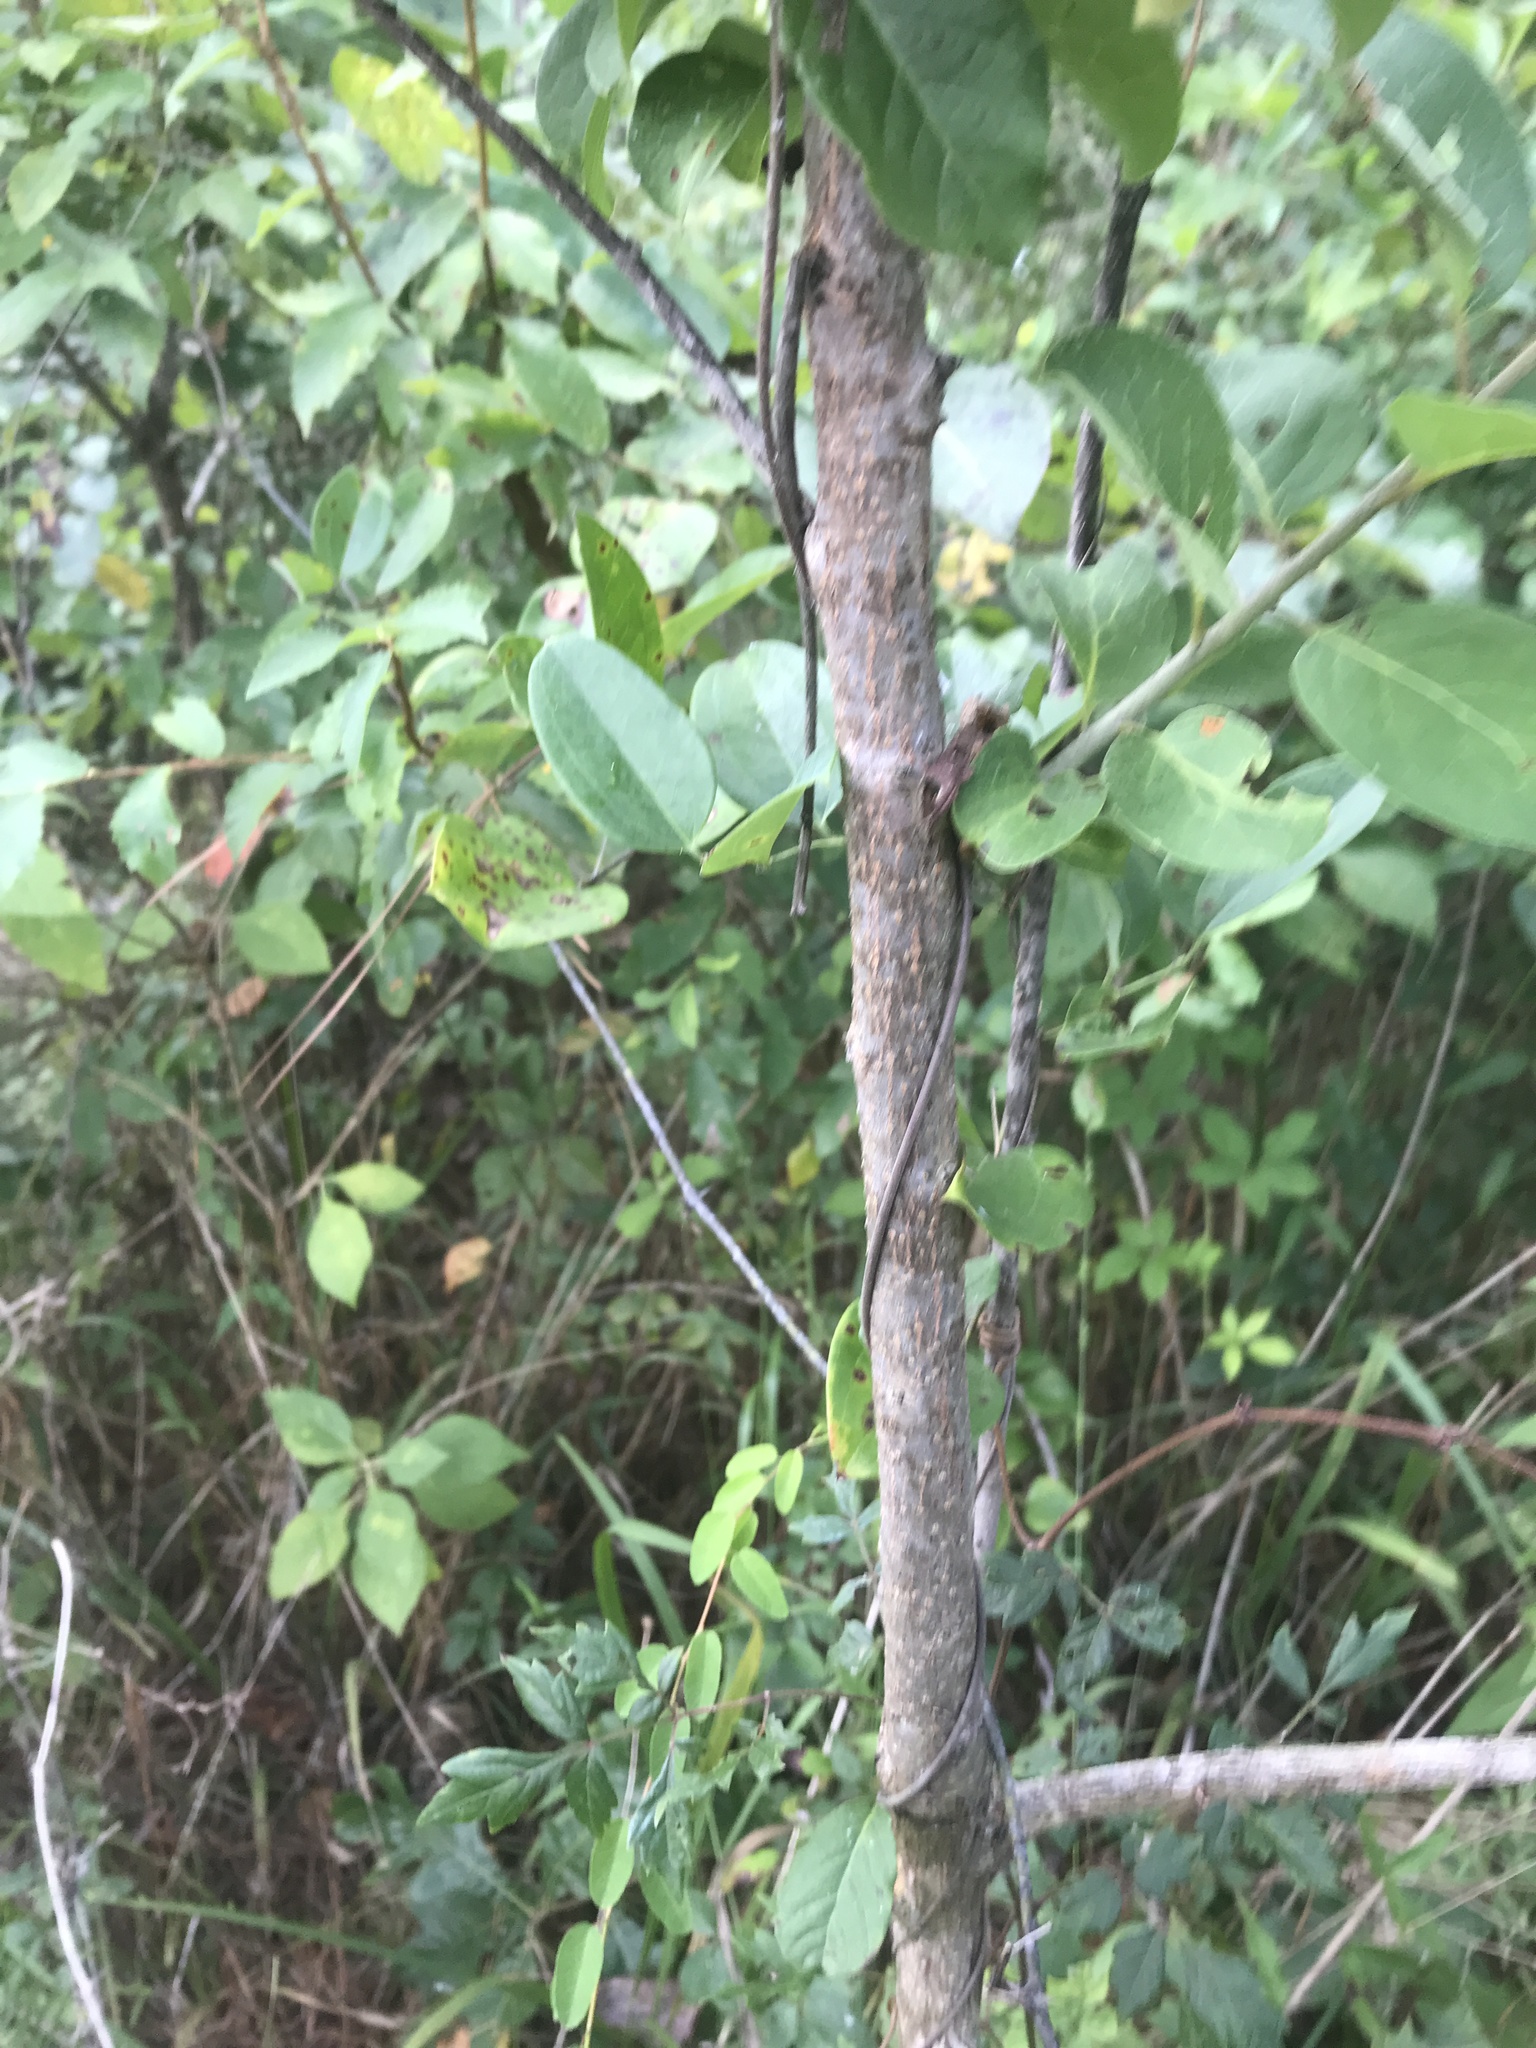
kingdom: Plantae
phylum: Tracheophyta
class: Magnoliopsida
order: Ericales
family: Ebenaceae
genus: Diospyros
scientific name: Diospyros virginiana
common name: Persimmon
